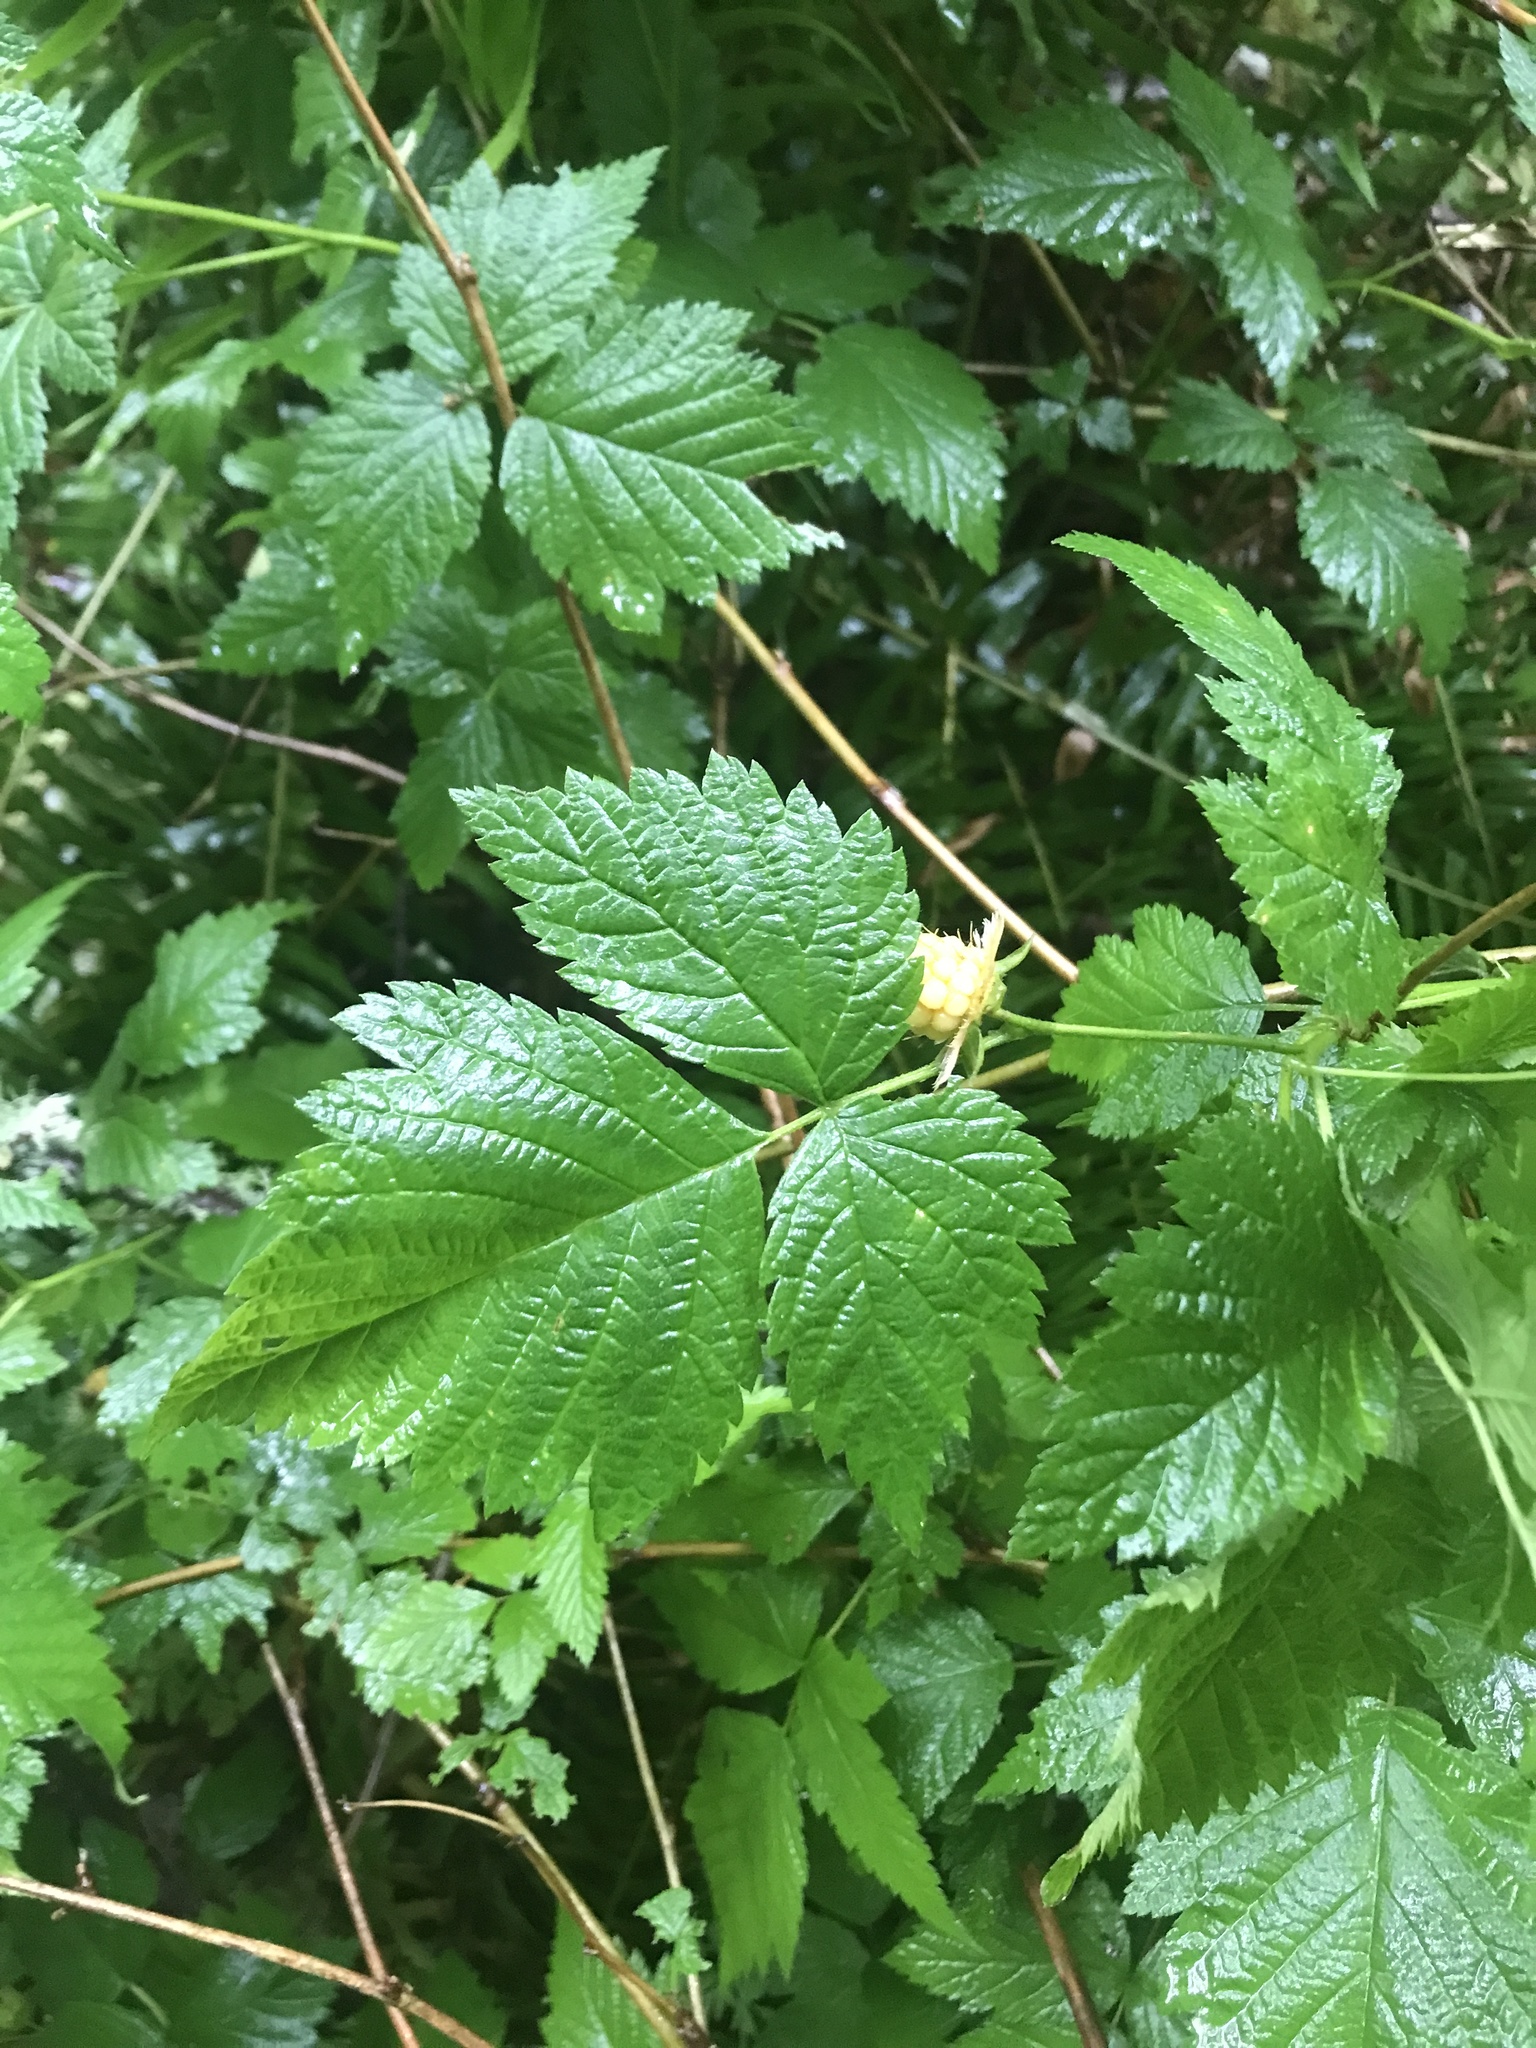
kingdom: Plantae
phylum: Tracheophyta
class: Magnoliopsida
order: Rosales
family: Rosaceae
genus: Rubus
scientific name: Rubus spectabilis
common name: Salmonberry
